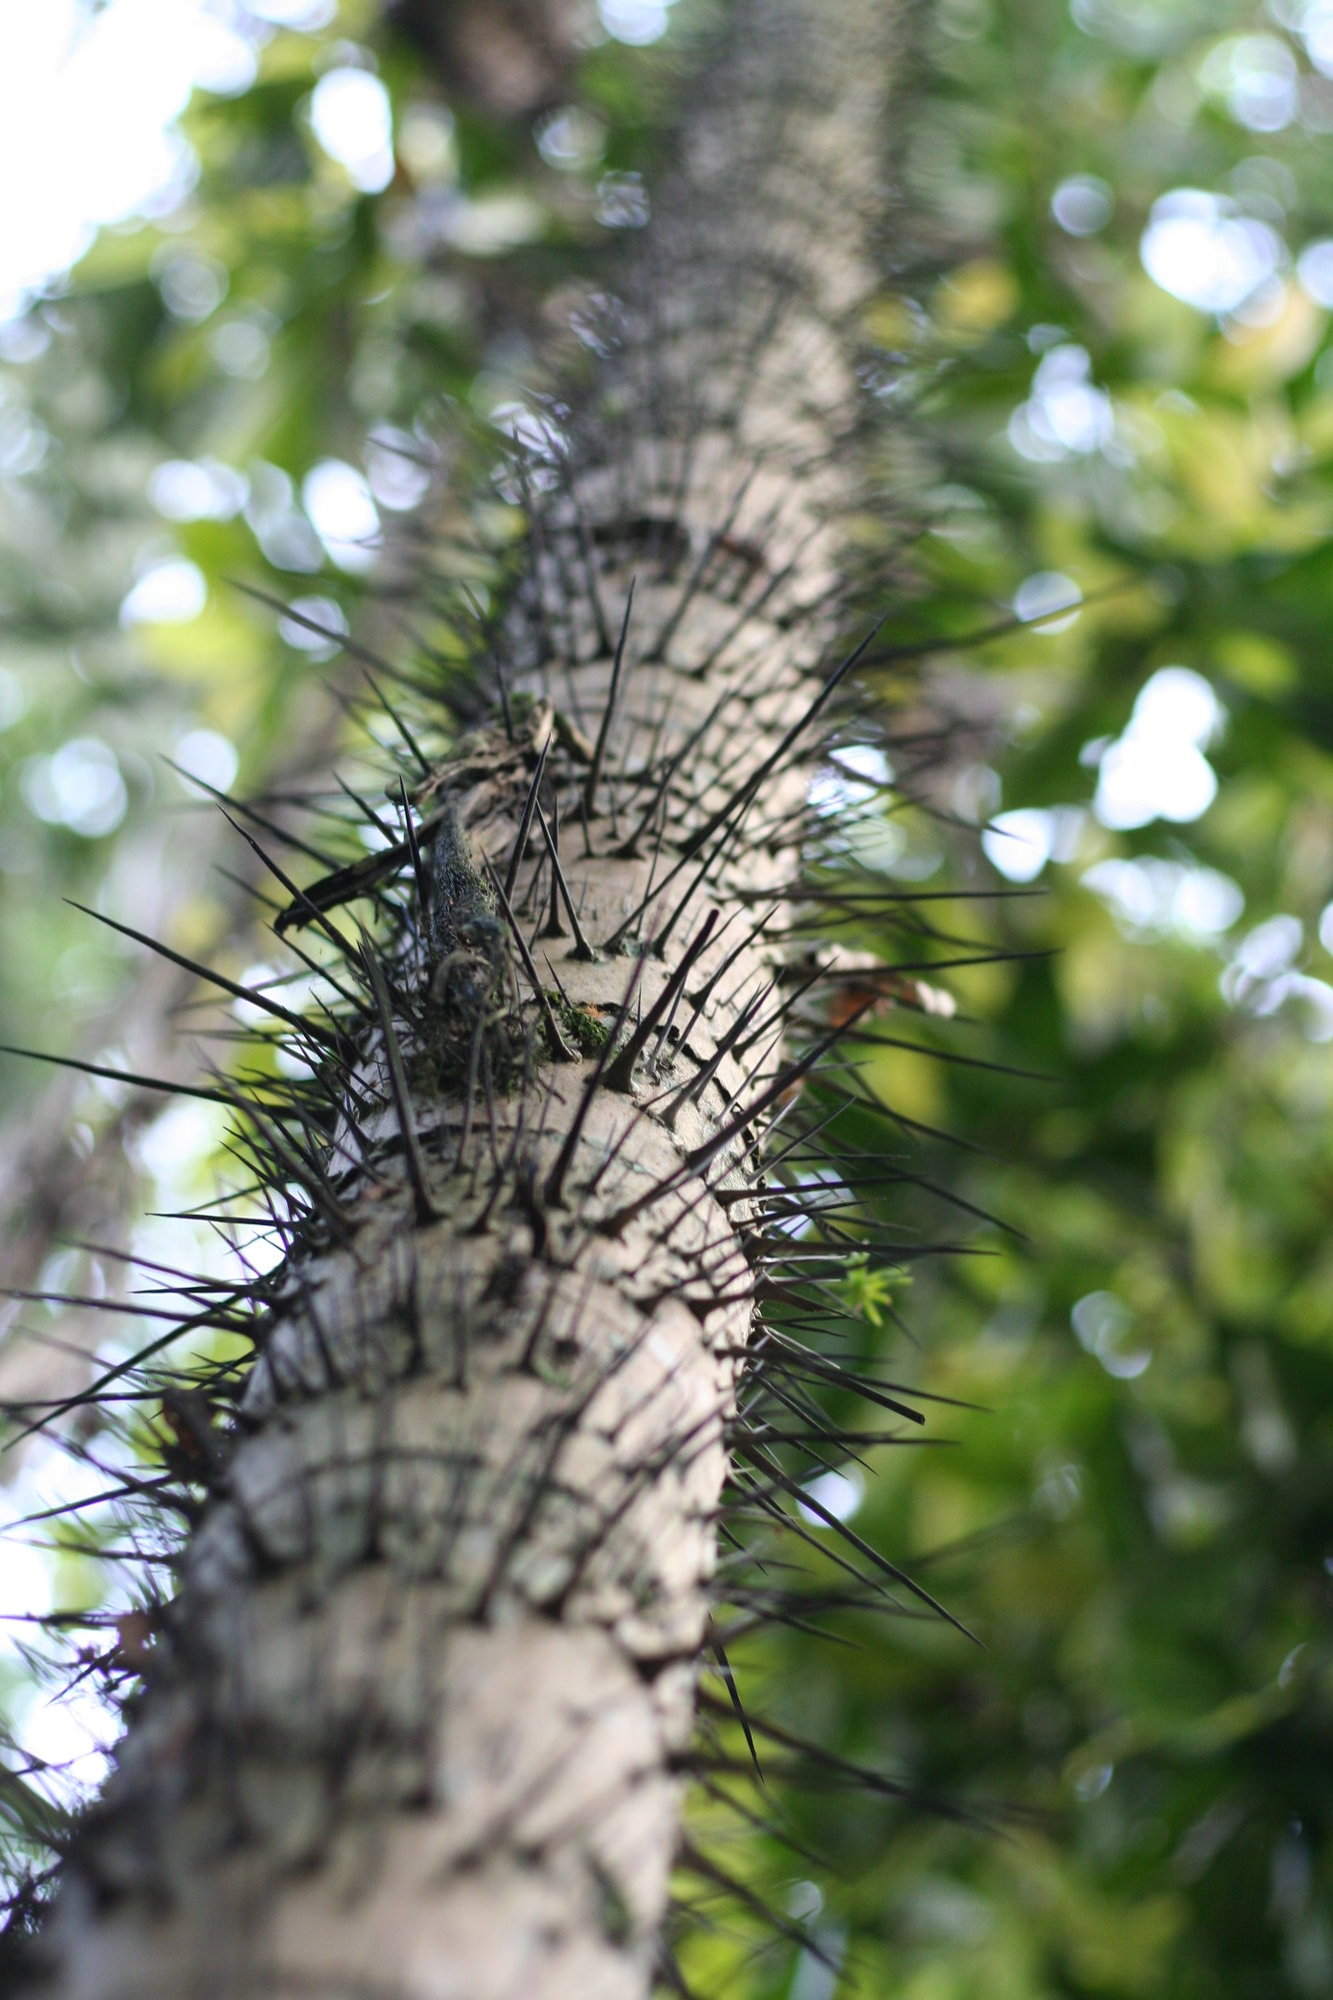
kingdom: Plantae
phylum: Tracheophyta
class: Liliopsida
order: Arecales
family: Arecaceae
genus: Aiphanes
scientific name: Aiphanes horrida
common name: Ruffle palm
